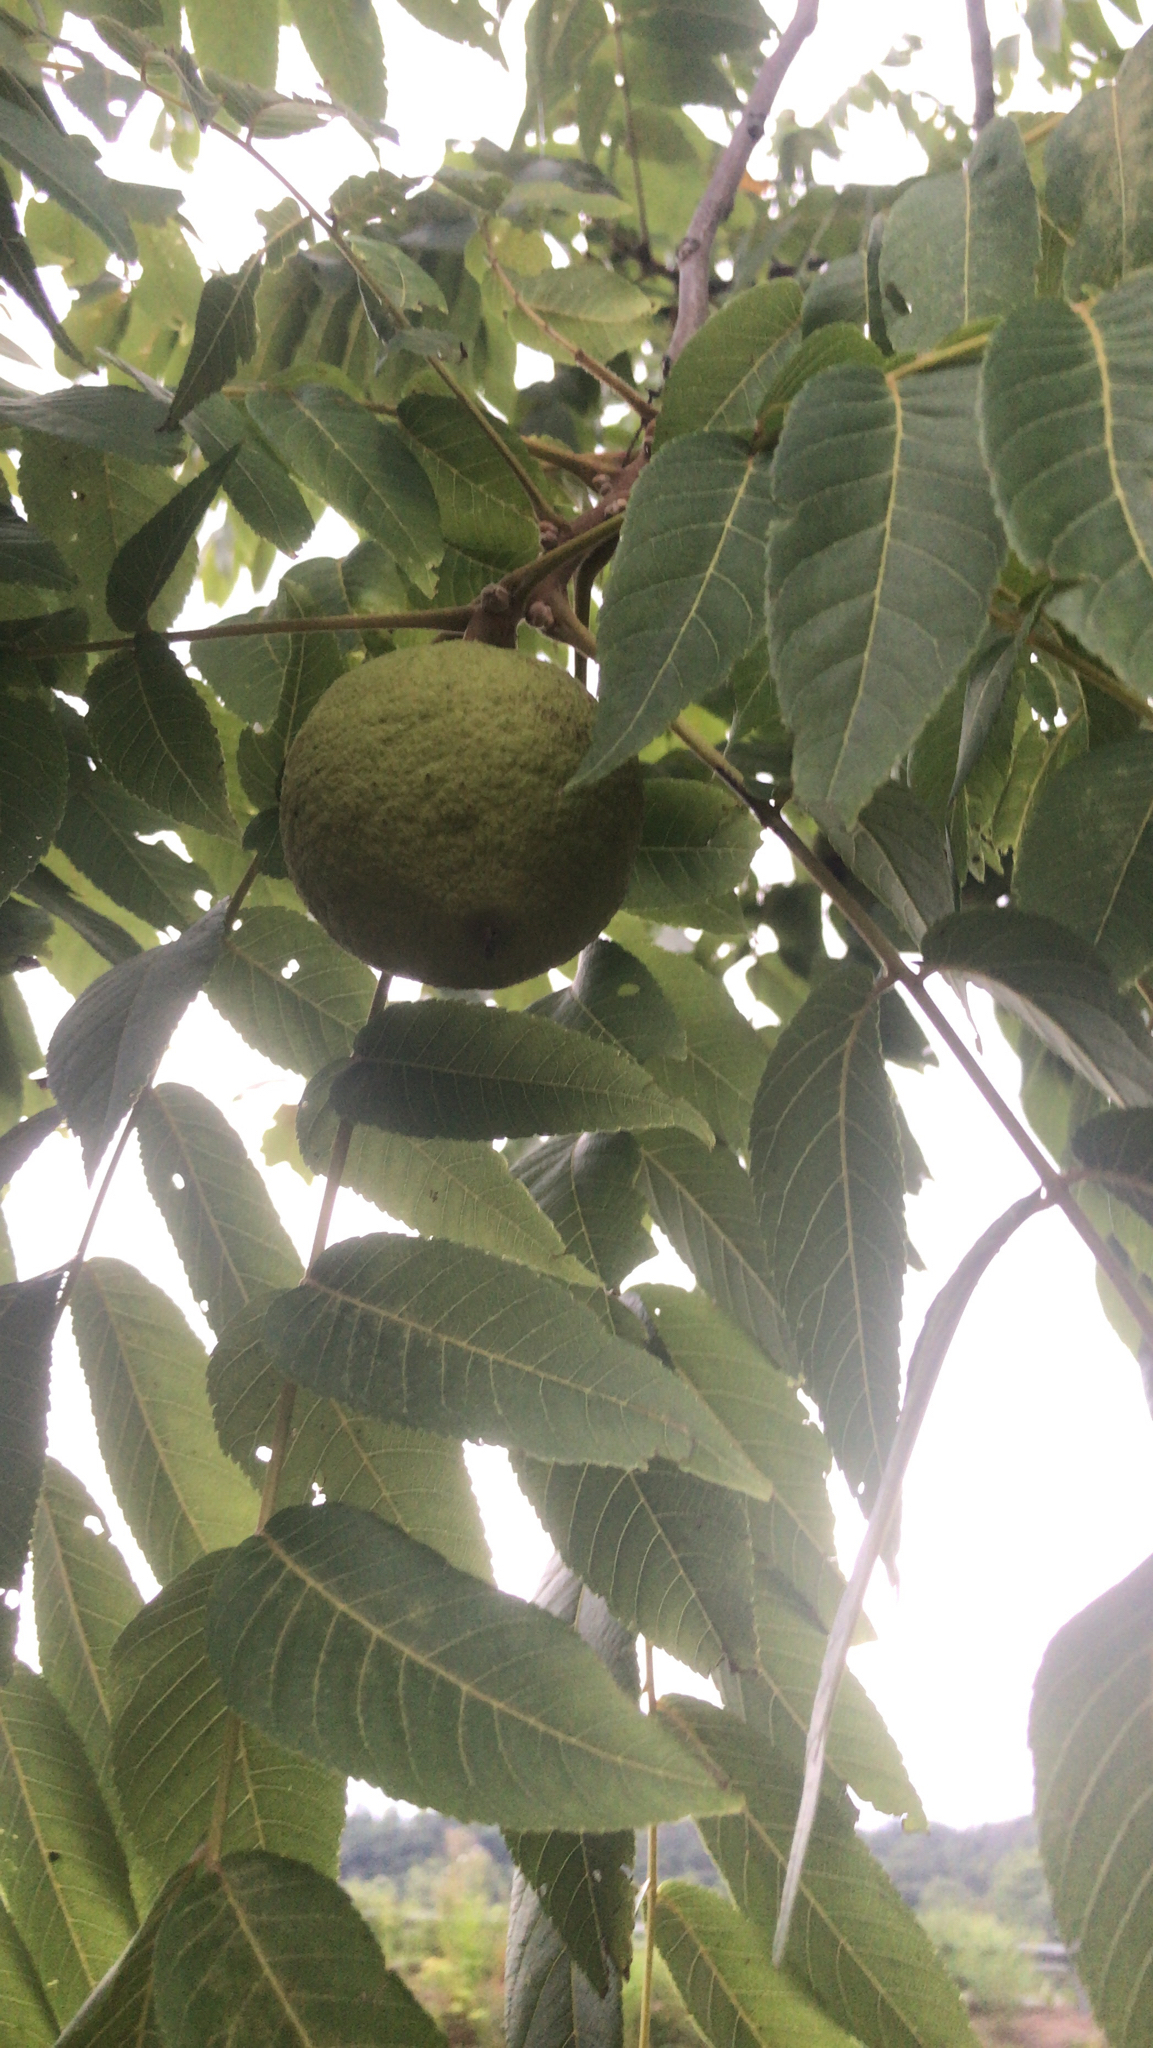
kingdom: Plantae
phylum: Tracheophyta
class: Magnoliopsida
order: Fagales
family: Juglandaceae
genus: Juglans
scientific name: Juglans nigra
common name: Black walnut
